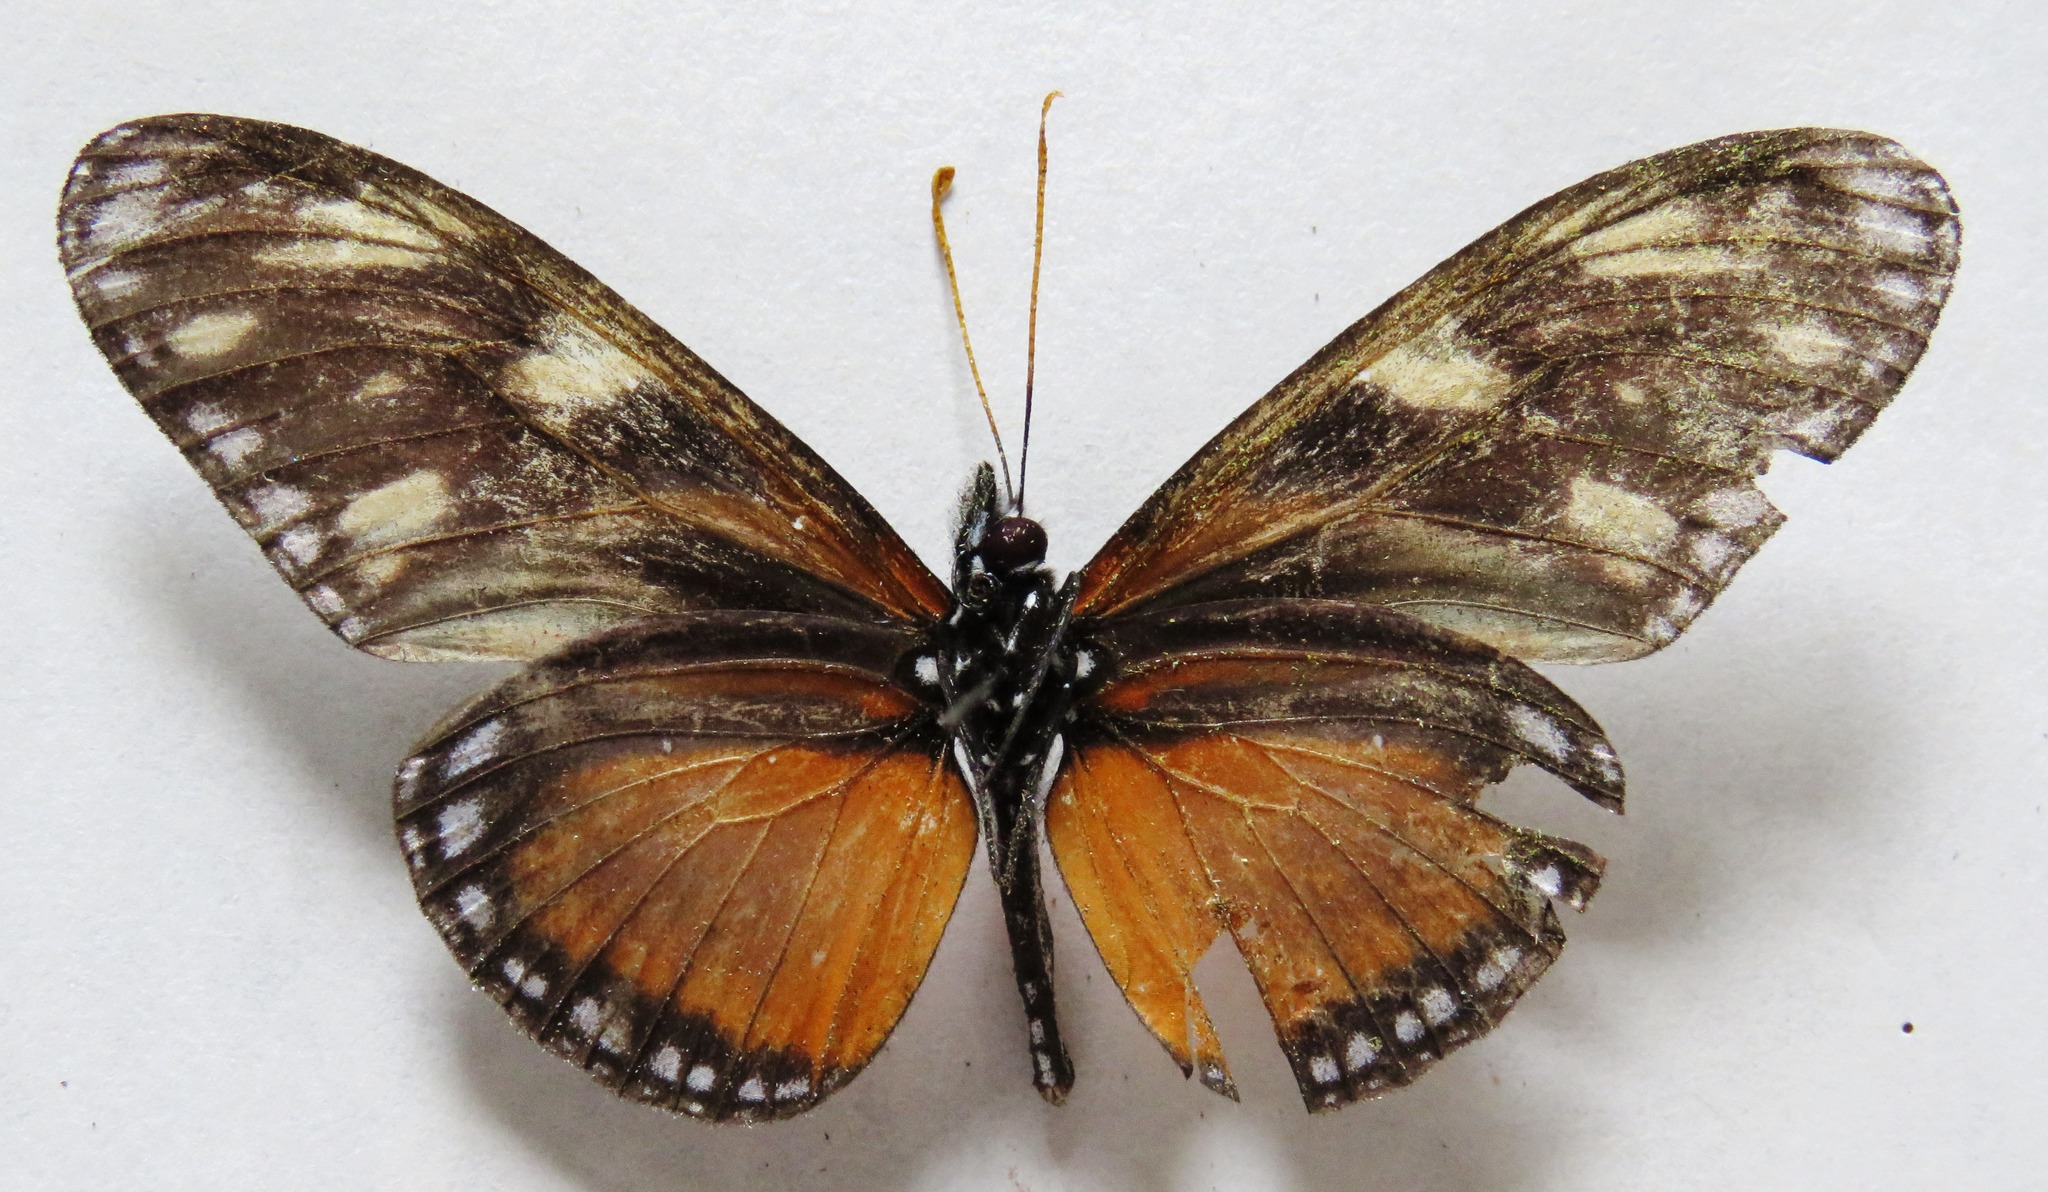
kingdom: Animalia
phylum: Arthropoda
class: Insecta
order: Lepidoptera
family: Nymphalidae
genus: Eueides
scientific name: Eueides procula
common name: Nonpassionate heliconian
